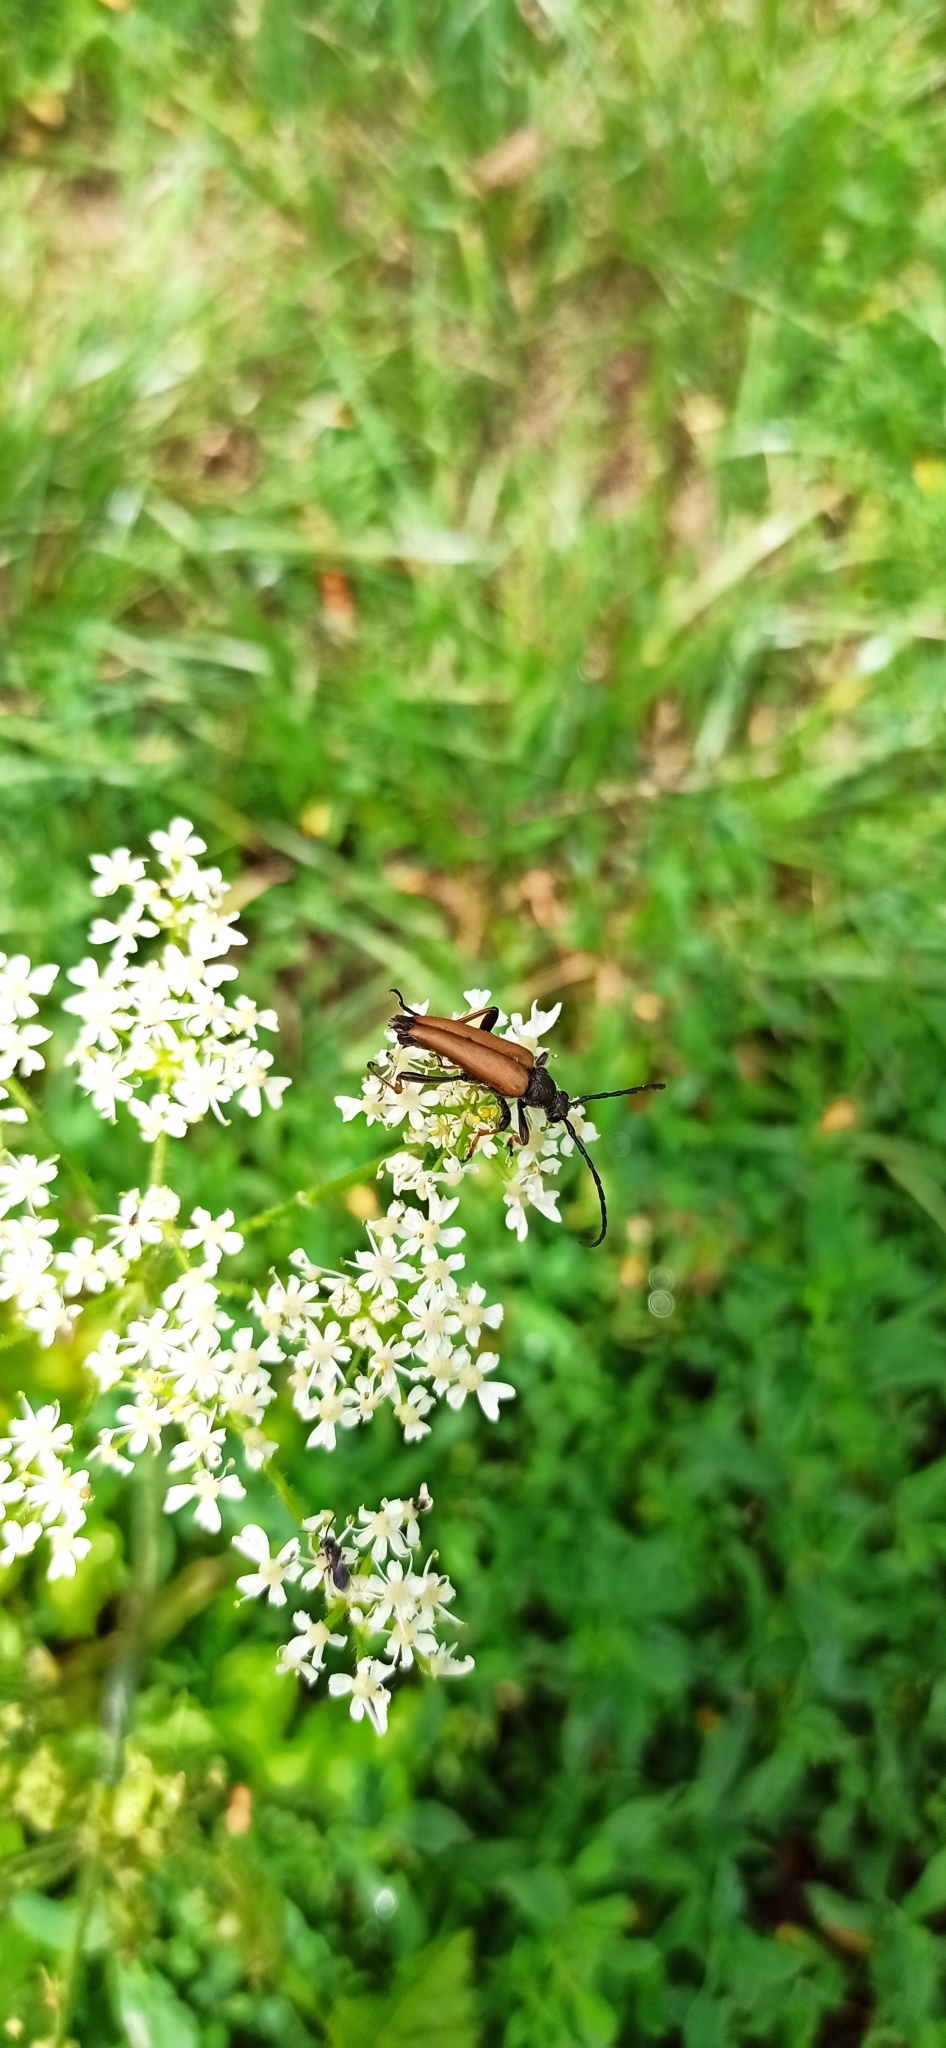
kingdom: Animalia
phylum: Arthropoda
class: Insecta
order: Coleoptera
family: Cerambycidae
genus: Stictoleptura
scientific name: Stictoleptura rubra
